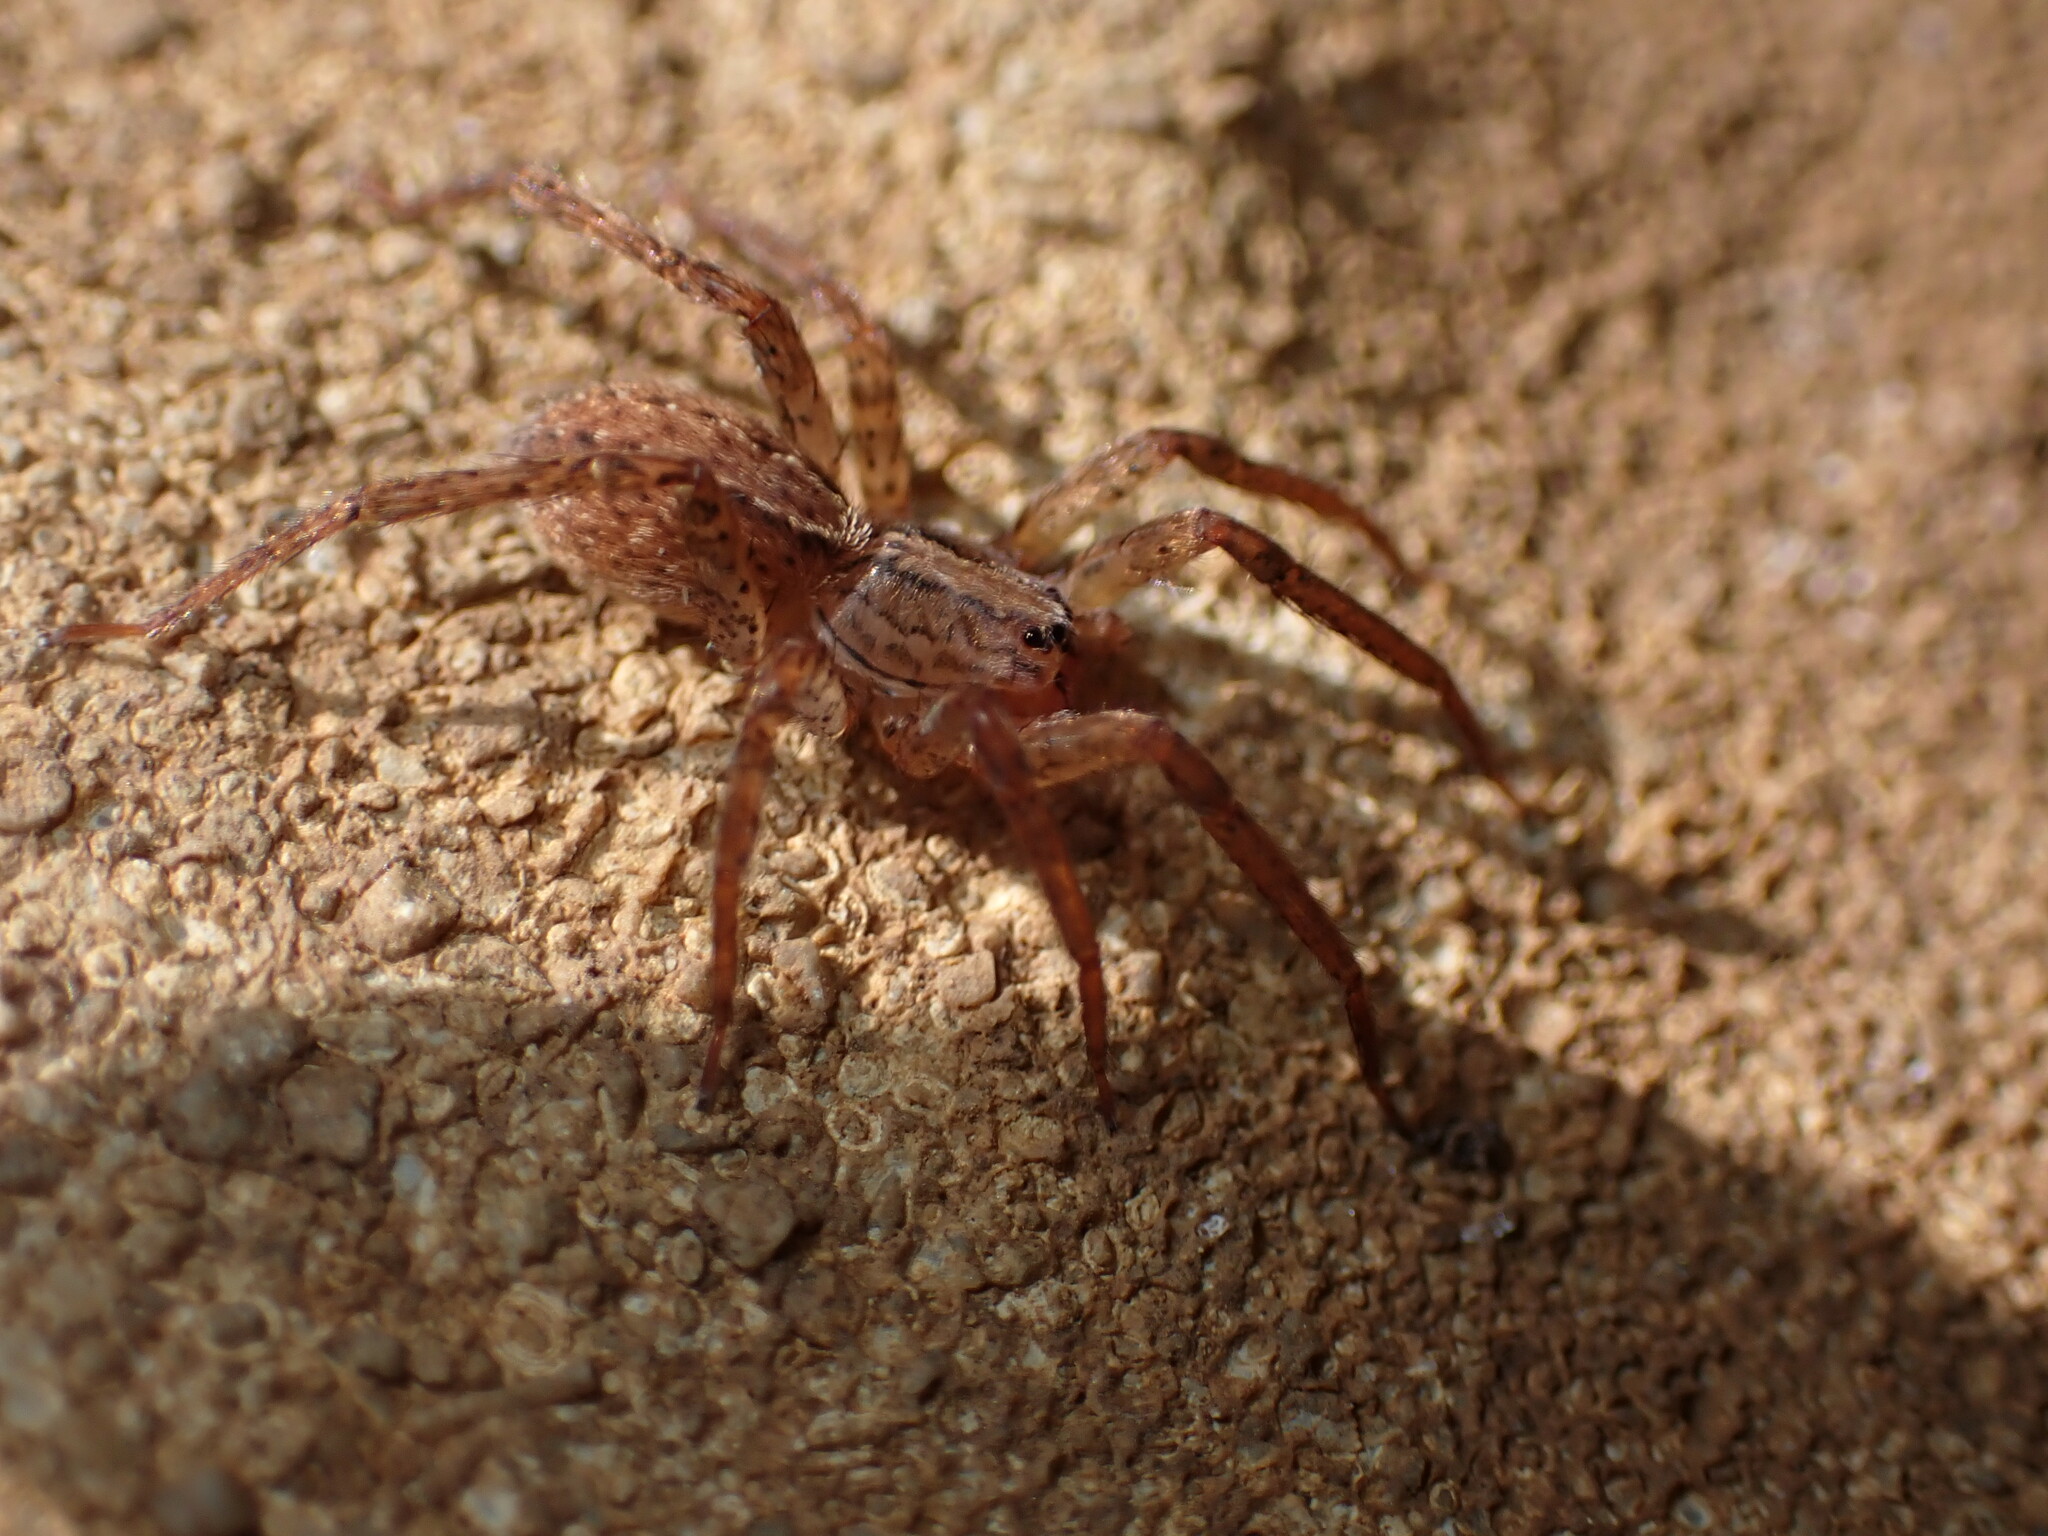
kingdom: Animalia
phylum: Arthropoda
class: Arachnida
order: Araneae
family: Ctenidae
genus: Anahita
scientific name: Anahita punctulata
